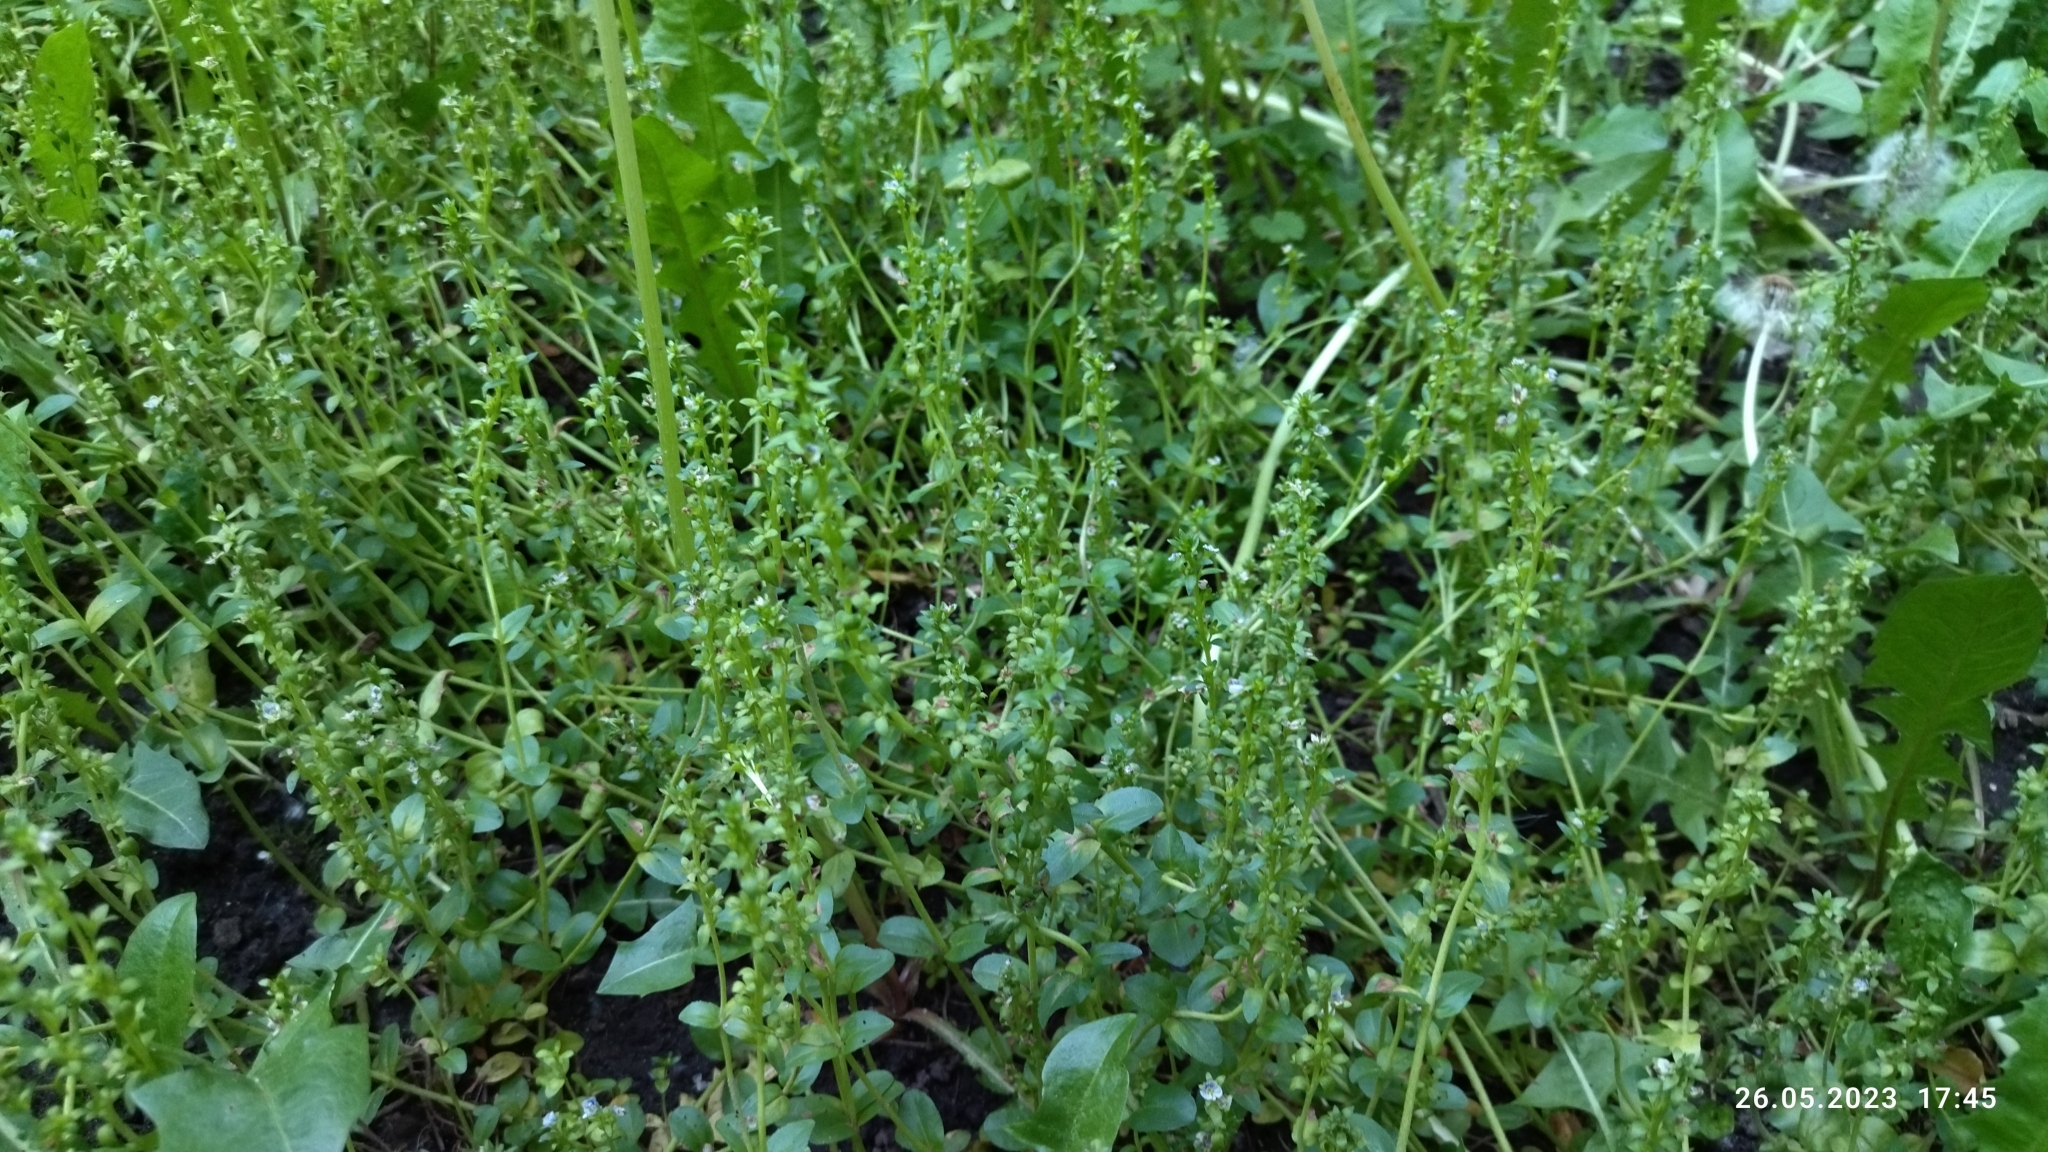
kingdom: Plantae
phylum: Tracheophyta
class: Magnoliopsida
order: Lamiales
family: Plantaginaceae
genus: Veronica
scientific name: Veronica serpyllifolia
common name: Thyme-leaved speedwell
